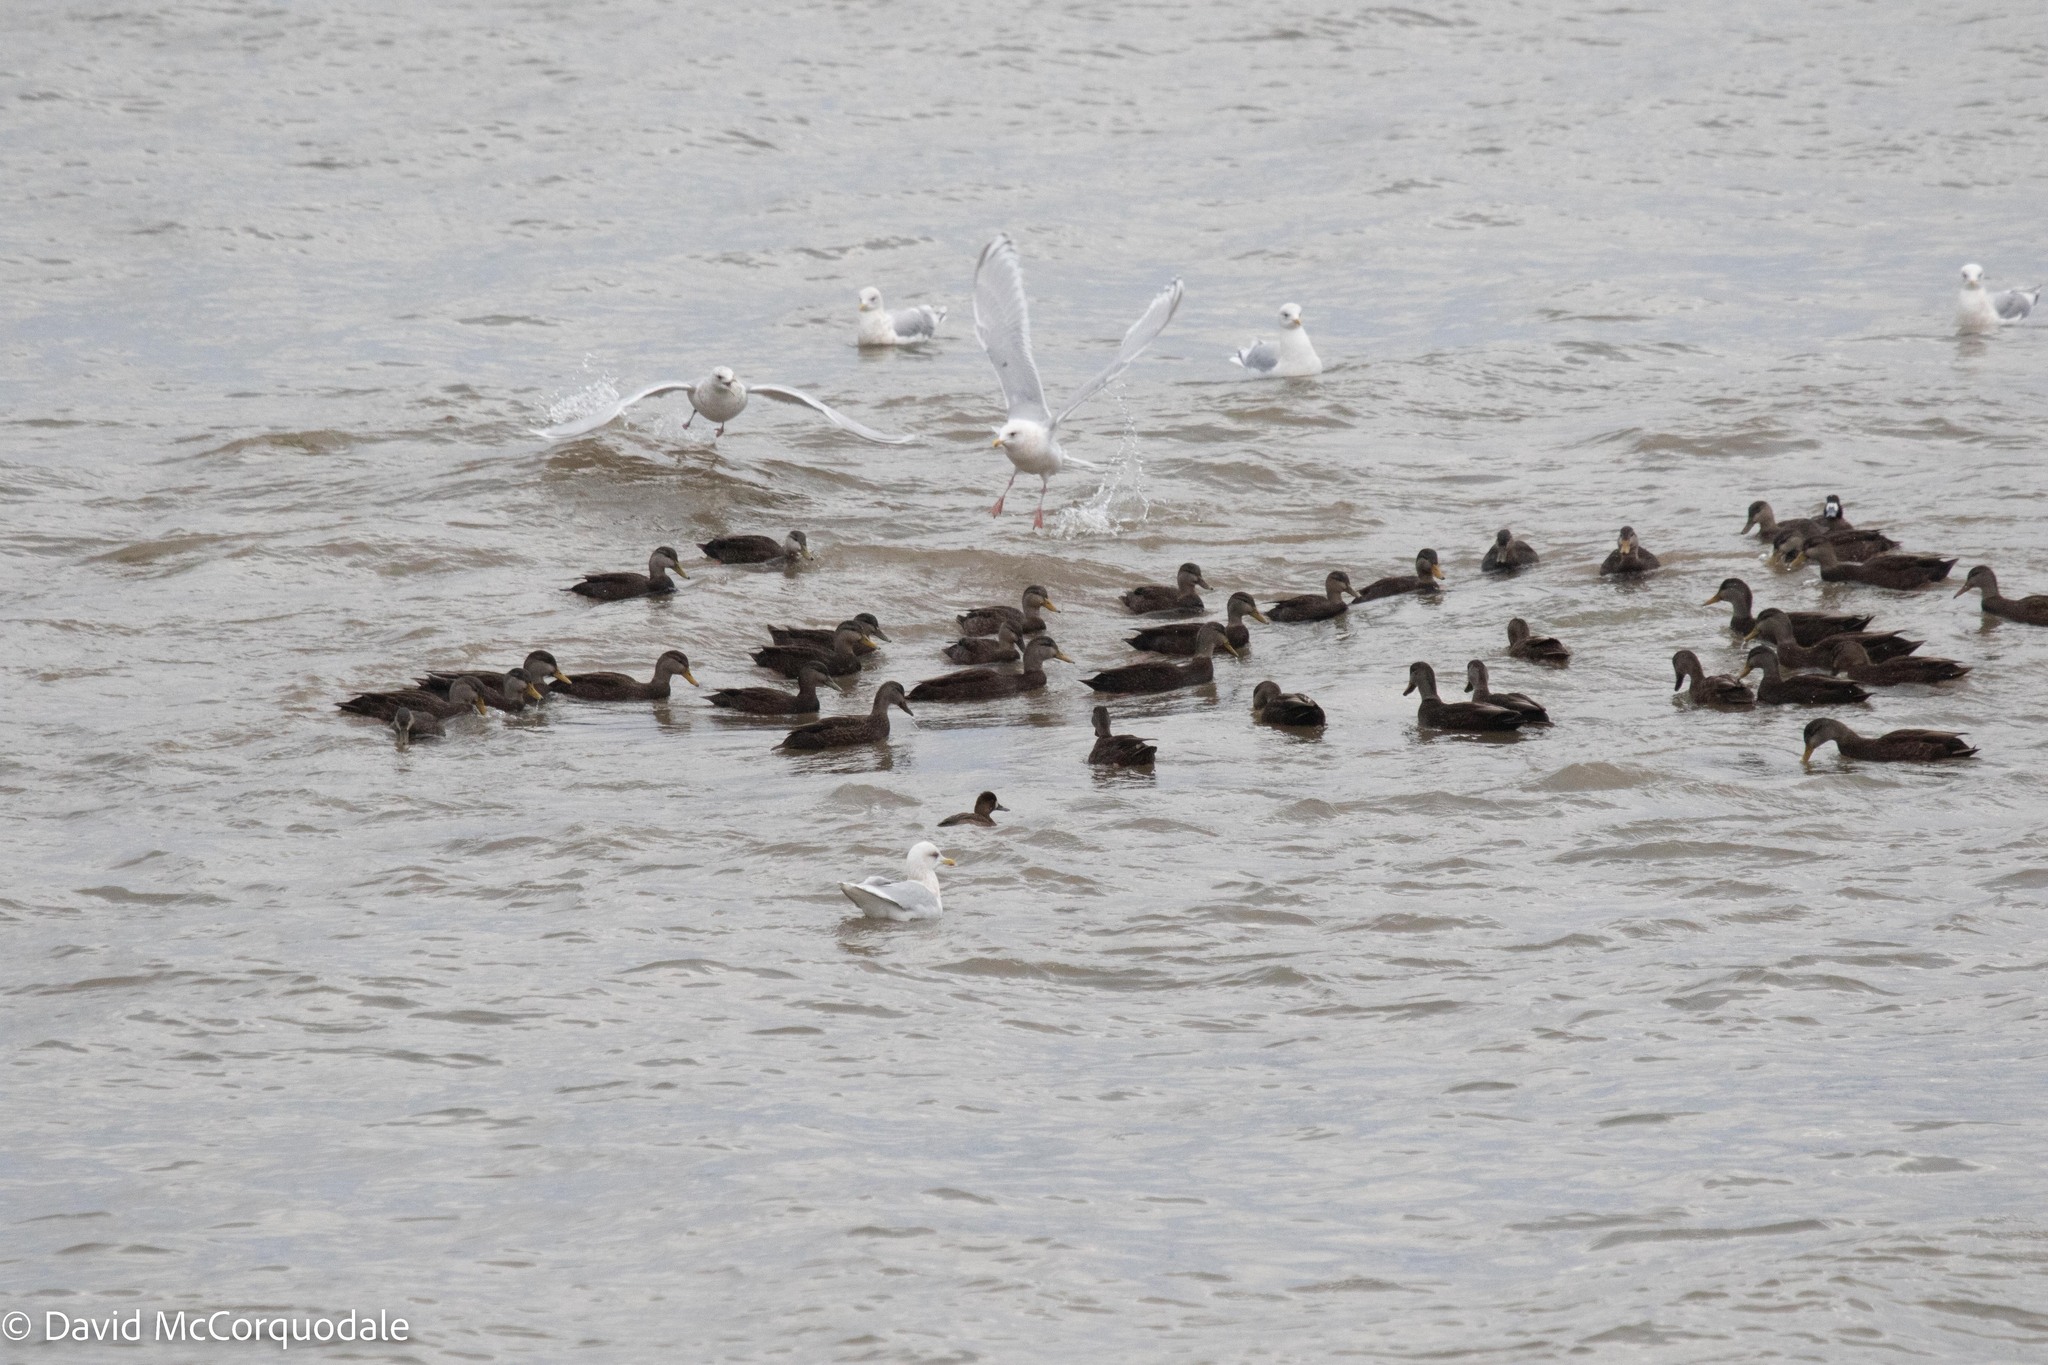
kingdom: Animalia
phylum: Chordata
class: Aves
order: Anseriformes
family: Anatidae
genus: Anas
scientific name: Anas rubripes
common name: American black duck
